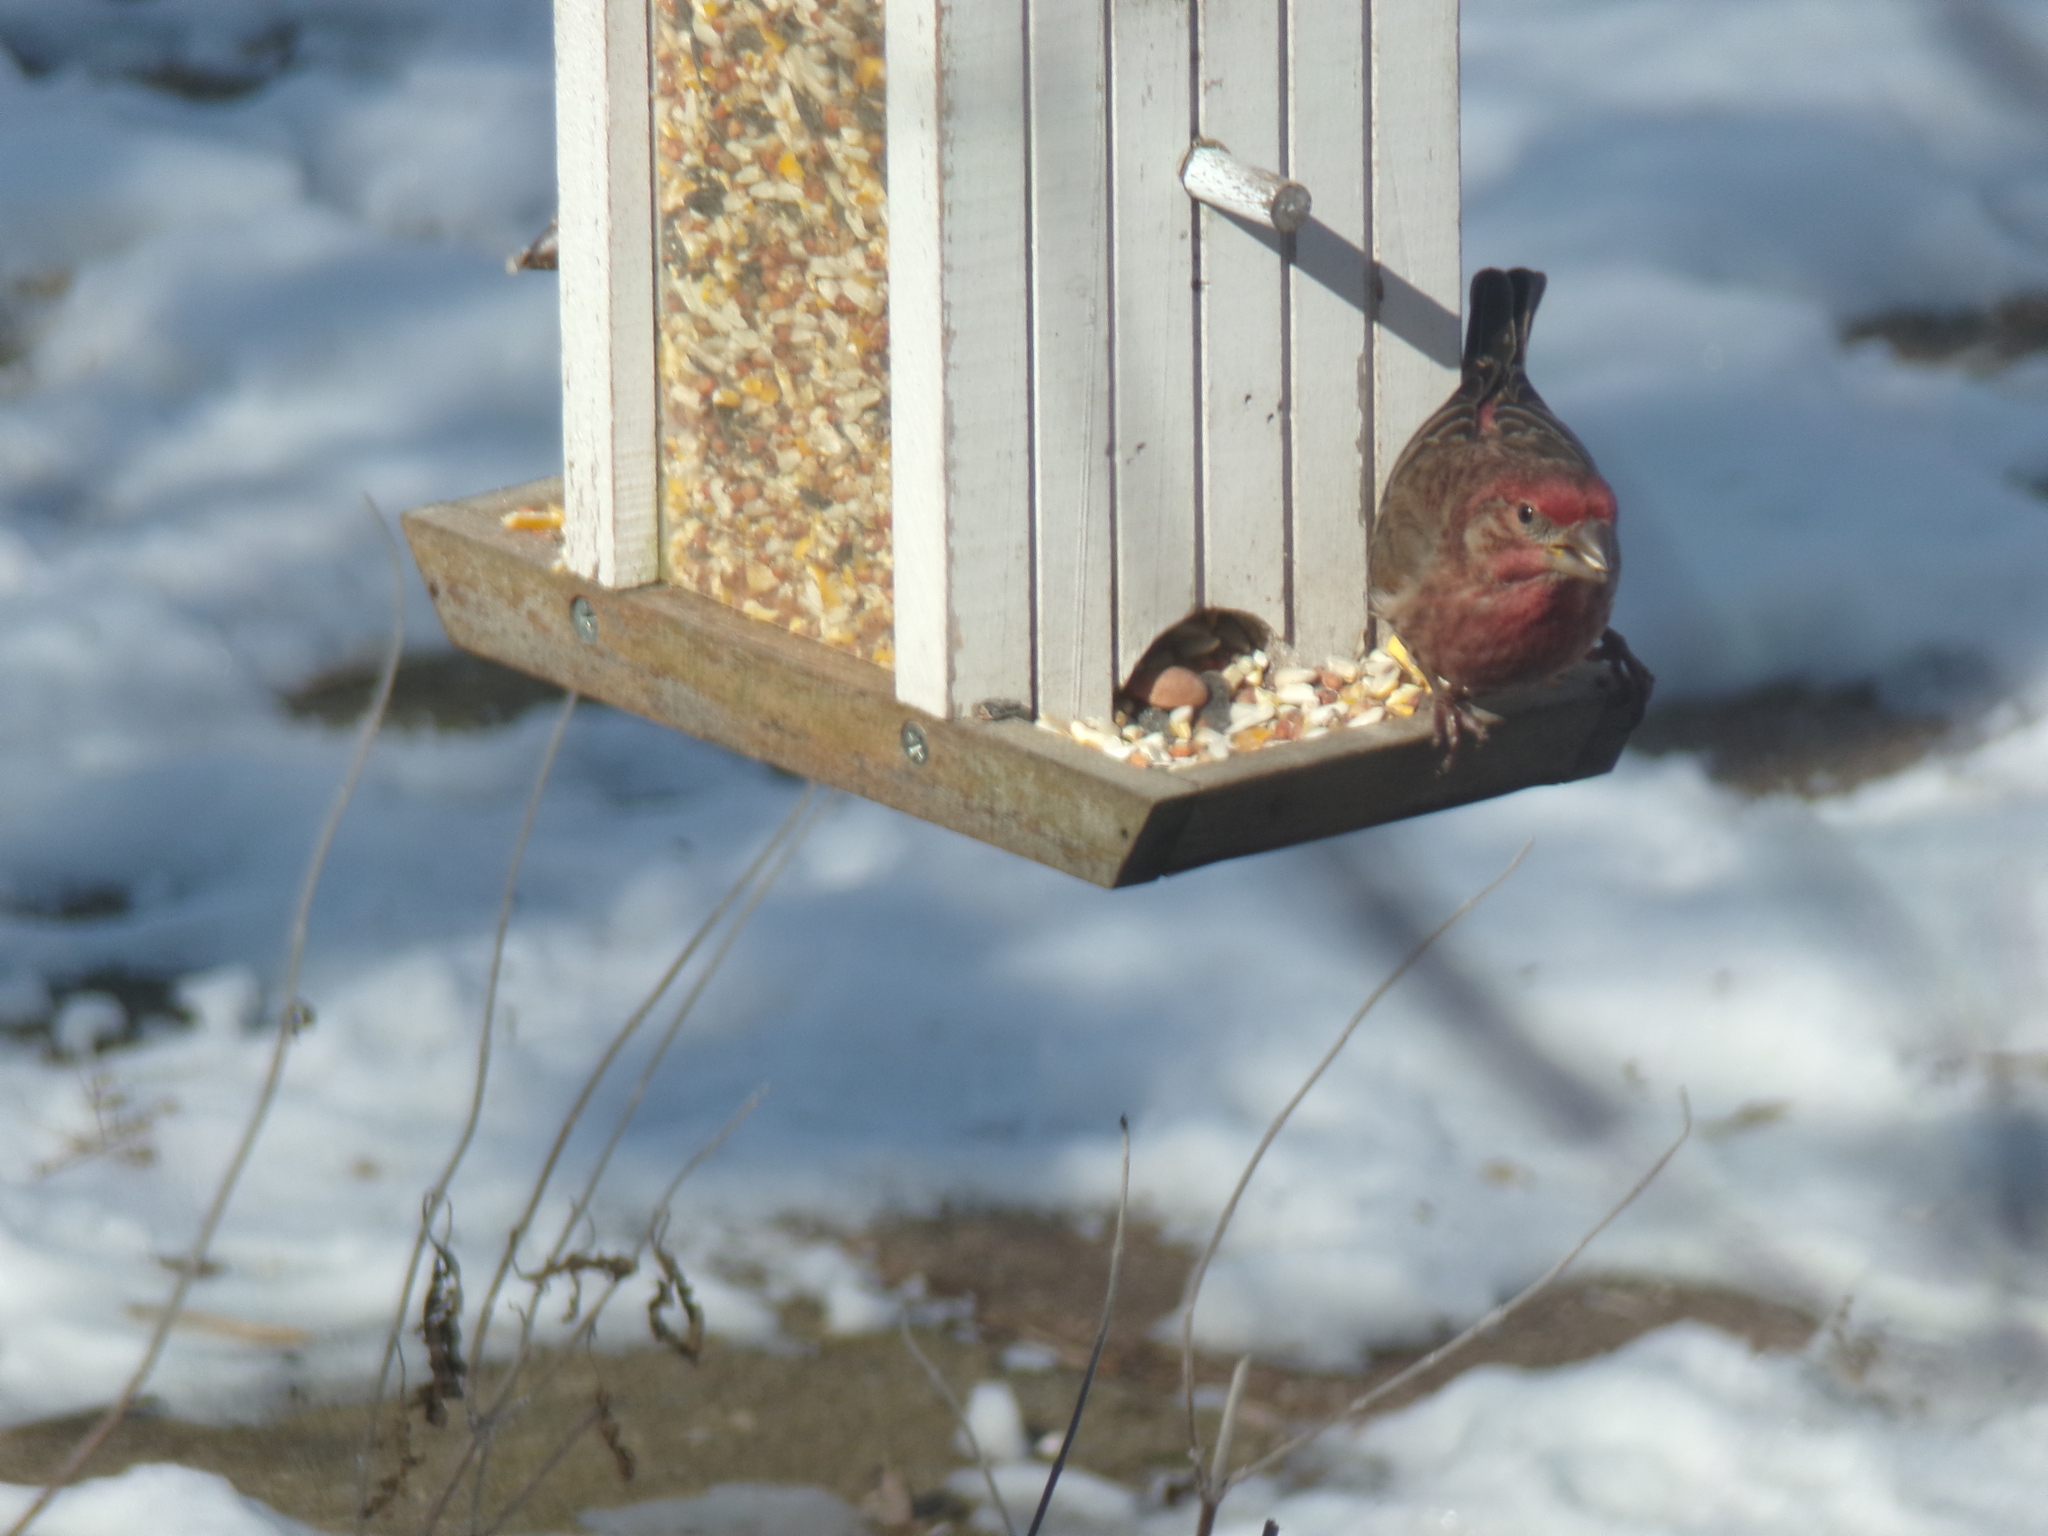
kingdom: Animalia
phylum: Chordata
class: Aves
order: Passeriformes
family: Fringillidae
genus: Haemorhous
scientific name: Haemorhous mexicanus
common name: House finch
